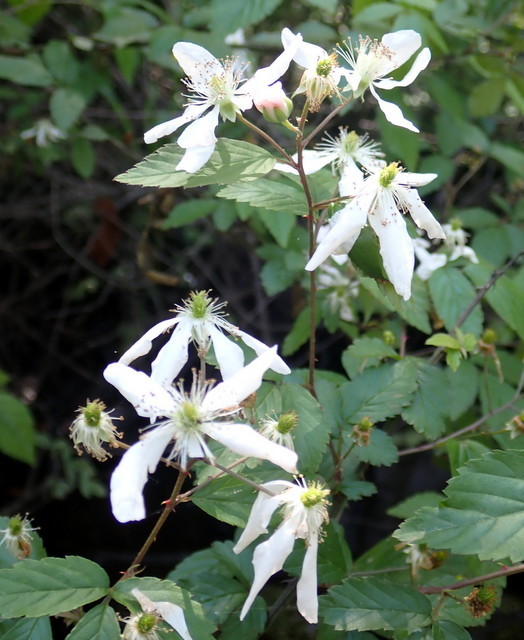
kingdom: Plantae
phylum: Tracheophyta
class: Magnoliopsida
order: Rosales
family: Rosaceae
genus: Rubus
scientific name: Rubus pensilvanicus
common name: Pennsylvania blackberry
